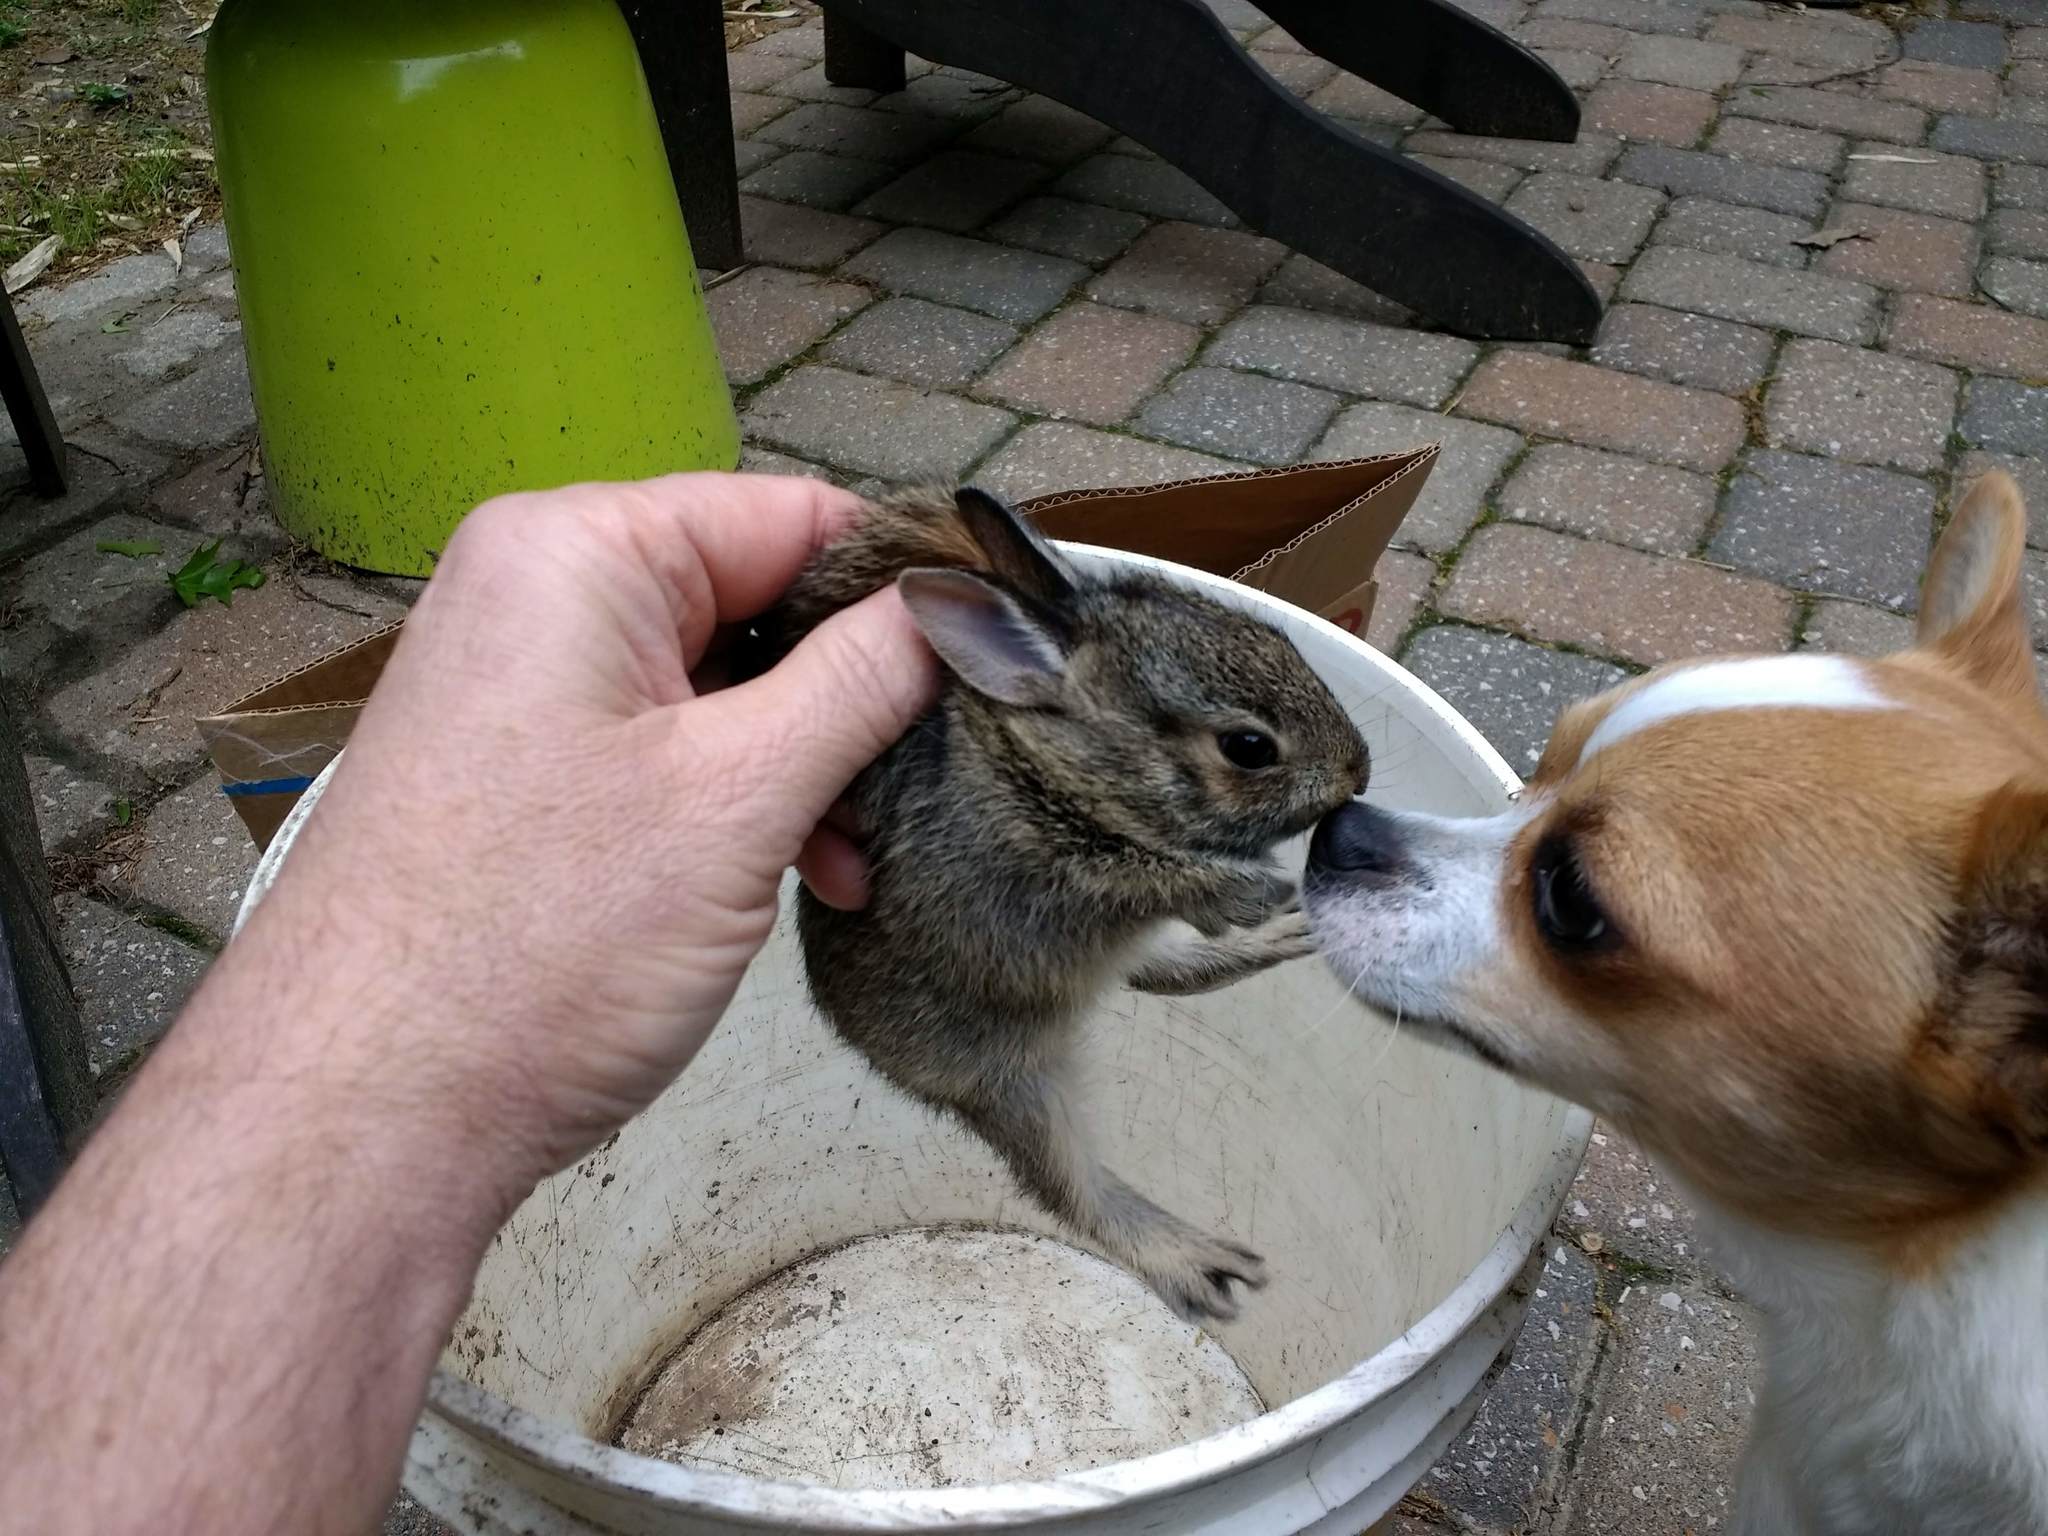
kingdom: Animalia
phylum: Chordata
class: Mammalia
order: Lagomorpha
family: Leporidae
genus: Sylvilagus
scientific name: Sylvilagus floridanus
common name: Eastern cottontail
